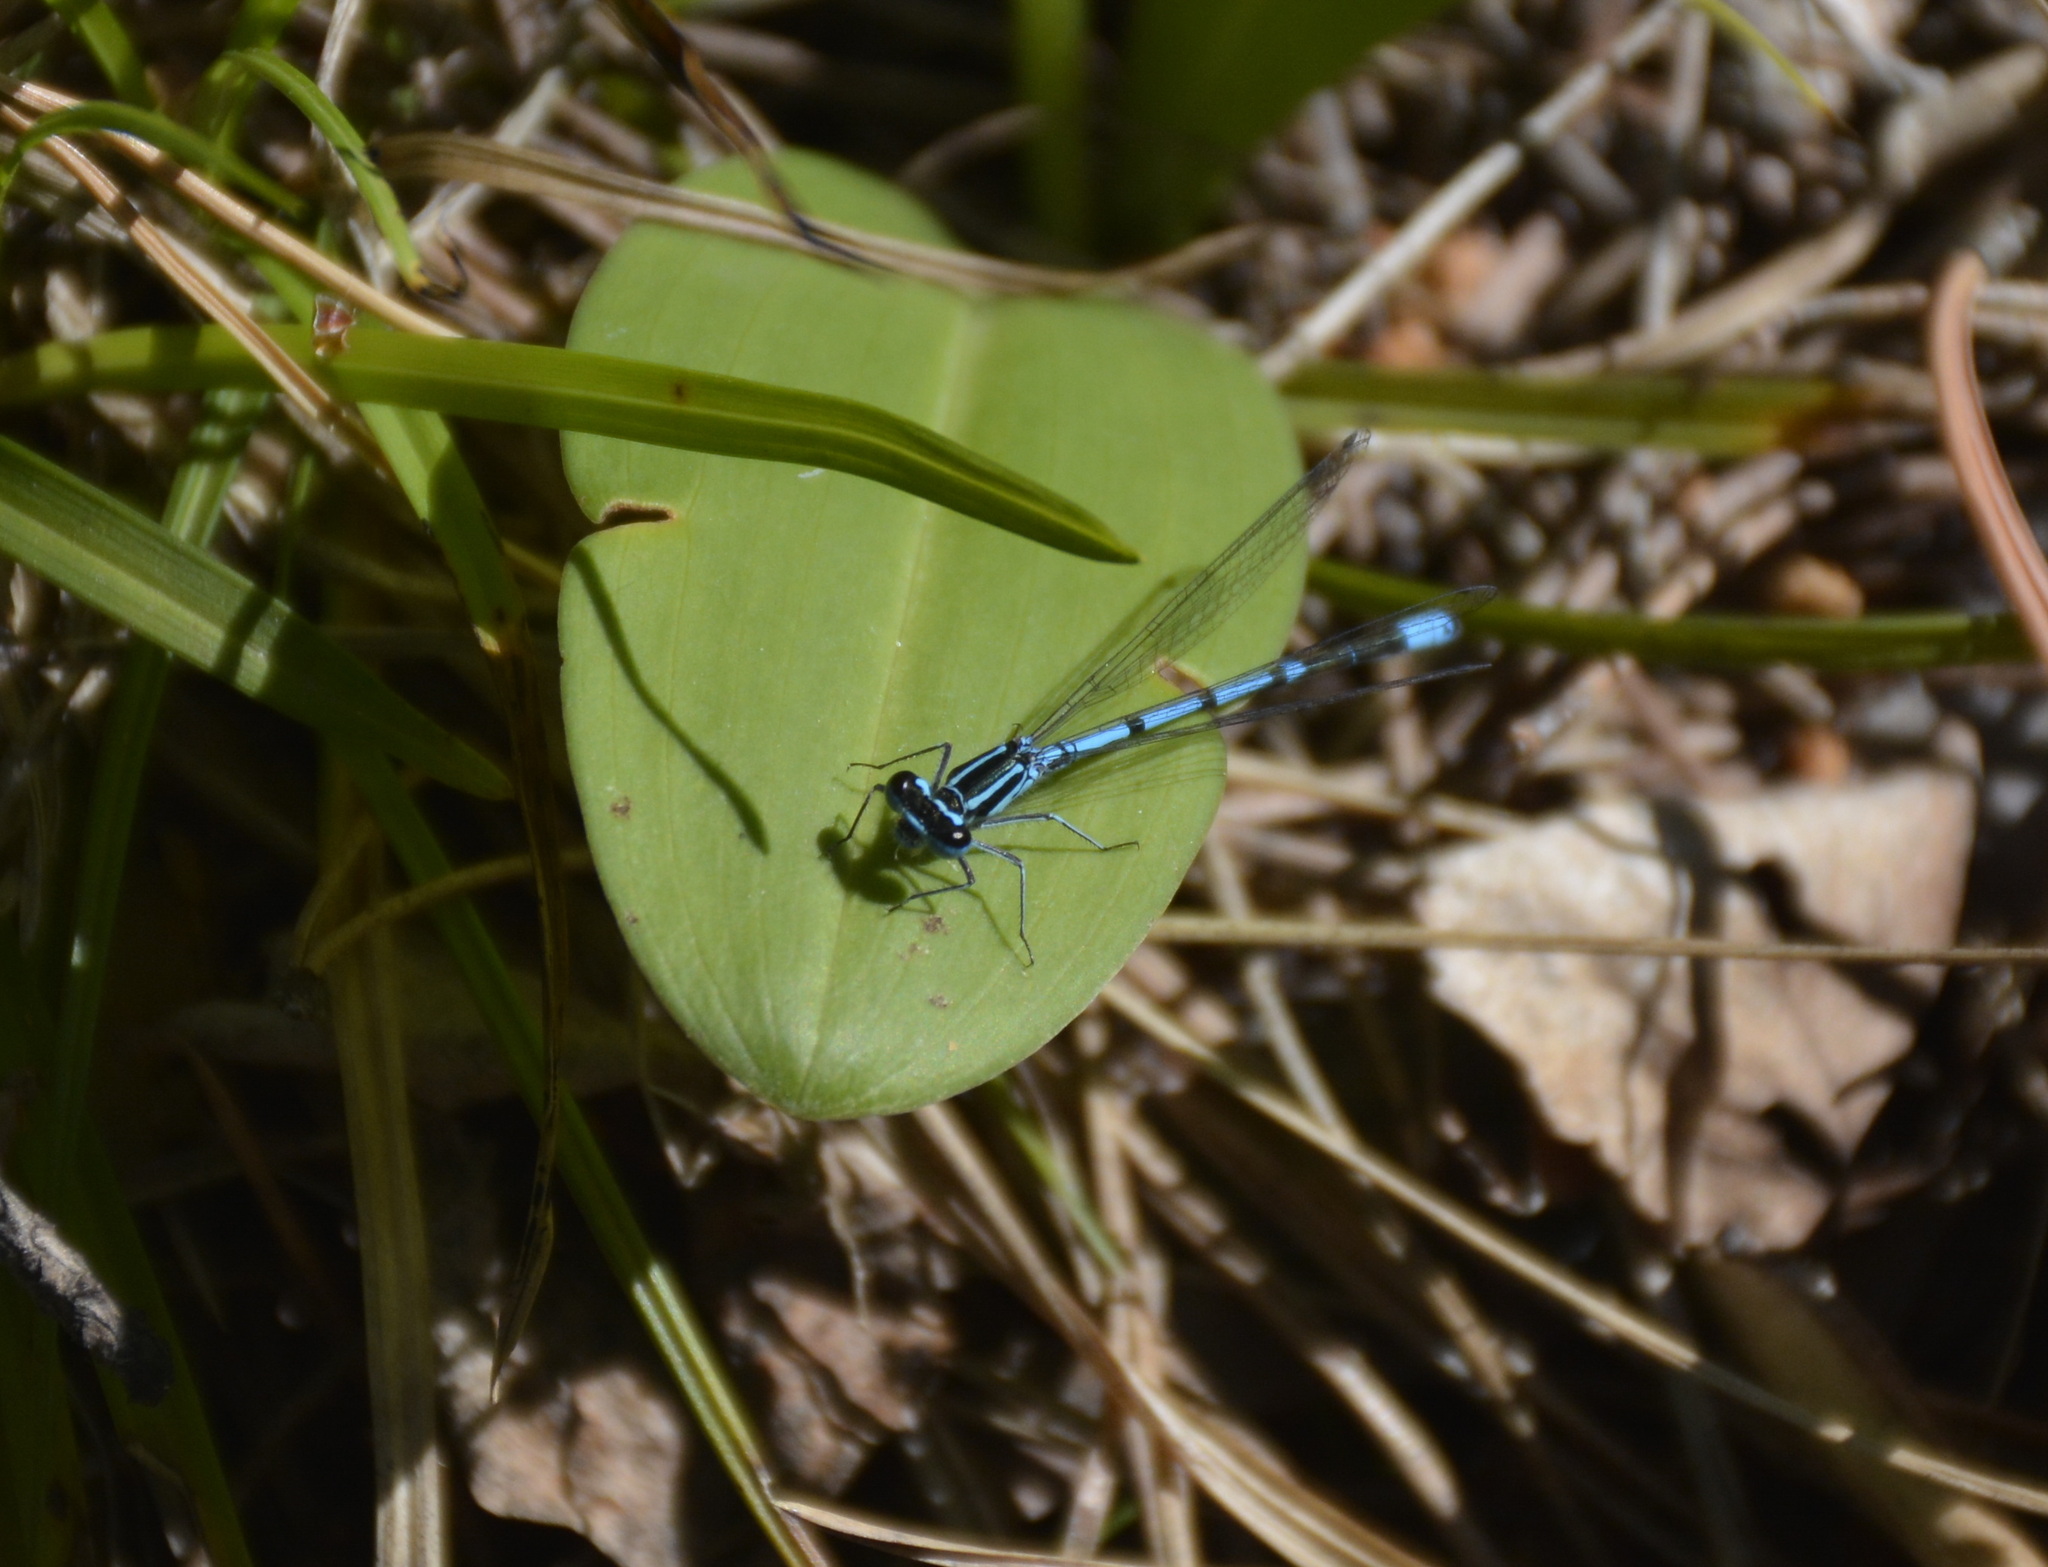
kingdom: Animalia
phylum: Arthropoda
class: Insecta
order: Odonata
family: Coenagrionidae
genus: Coenagrion
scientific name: Coenagrion puella
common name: Azure damselfly
